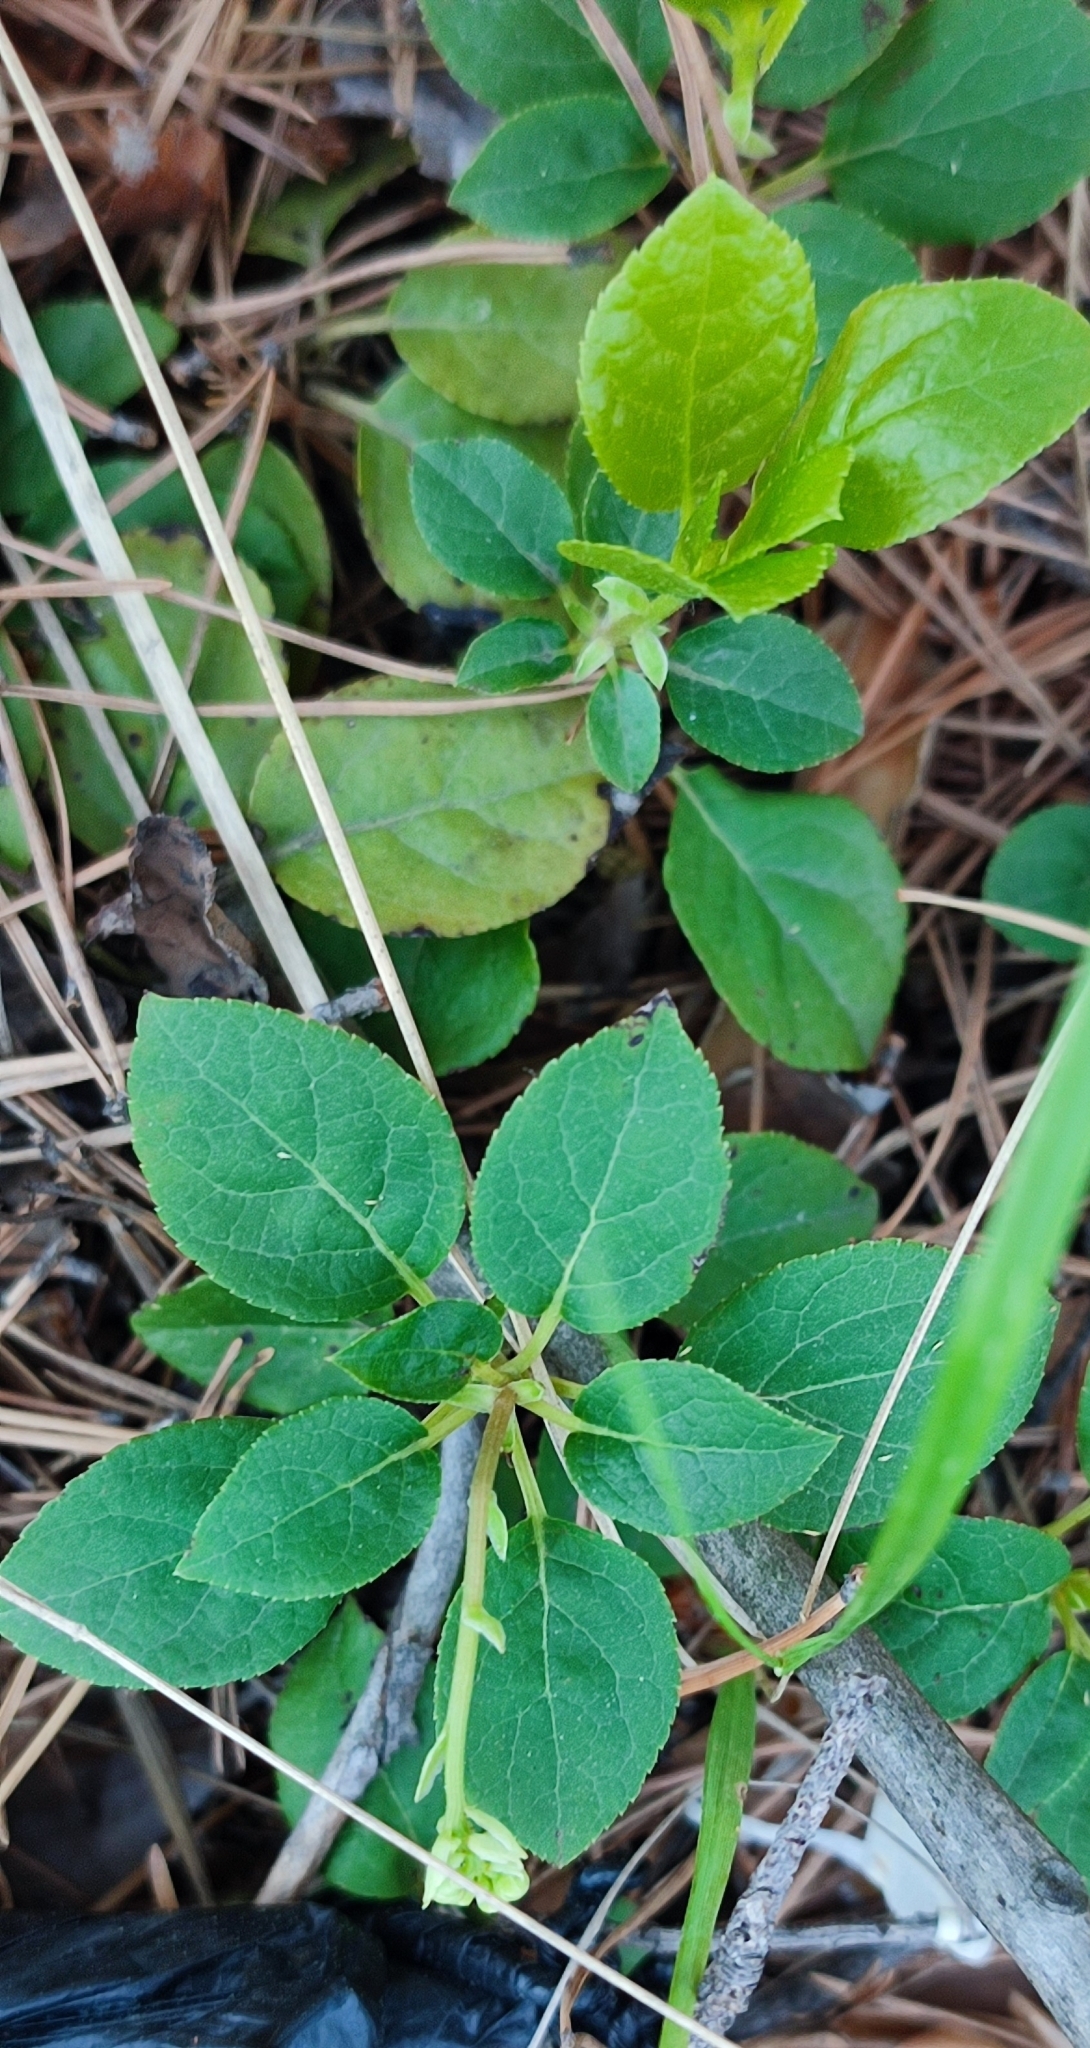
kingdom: Plantae
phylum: Tracheophyta
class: Magnoliopsida
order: Ericales
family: Ericaceae
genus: Orthilia
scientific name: Orthilia secunda
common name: One-sided orthilia
